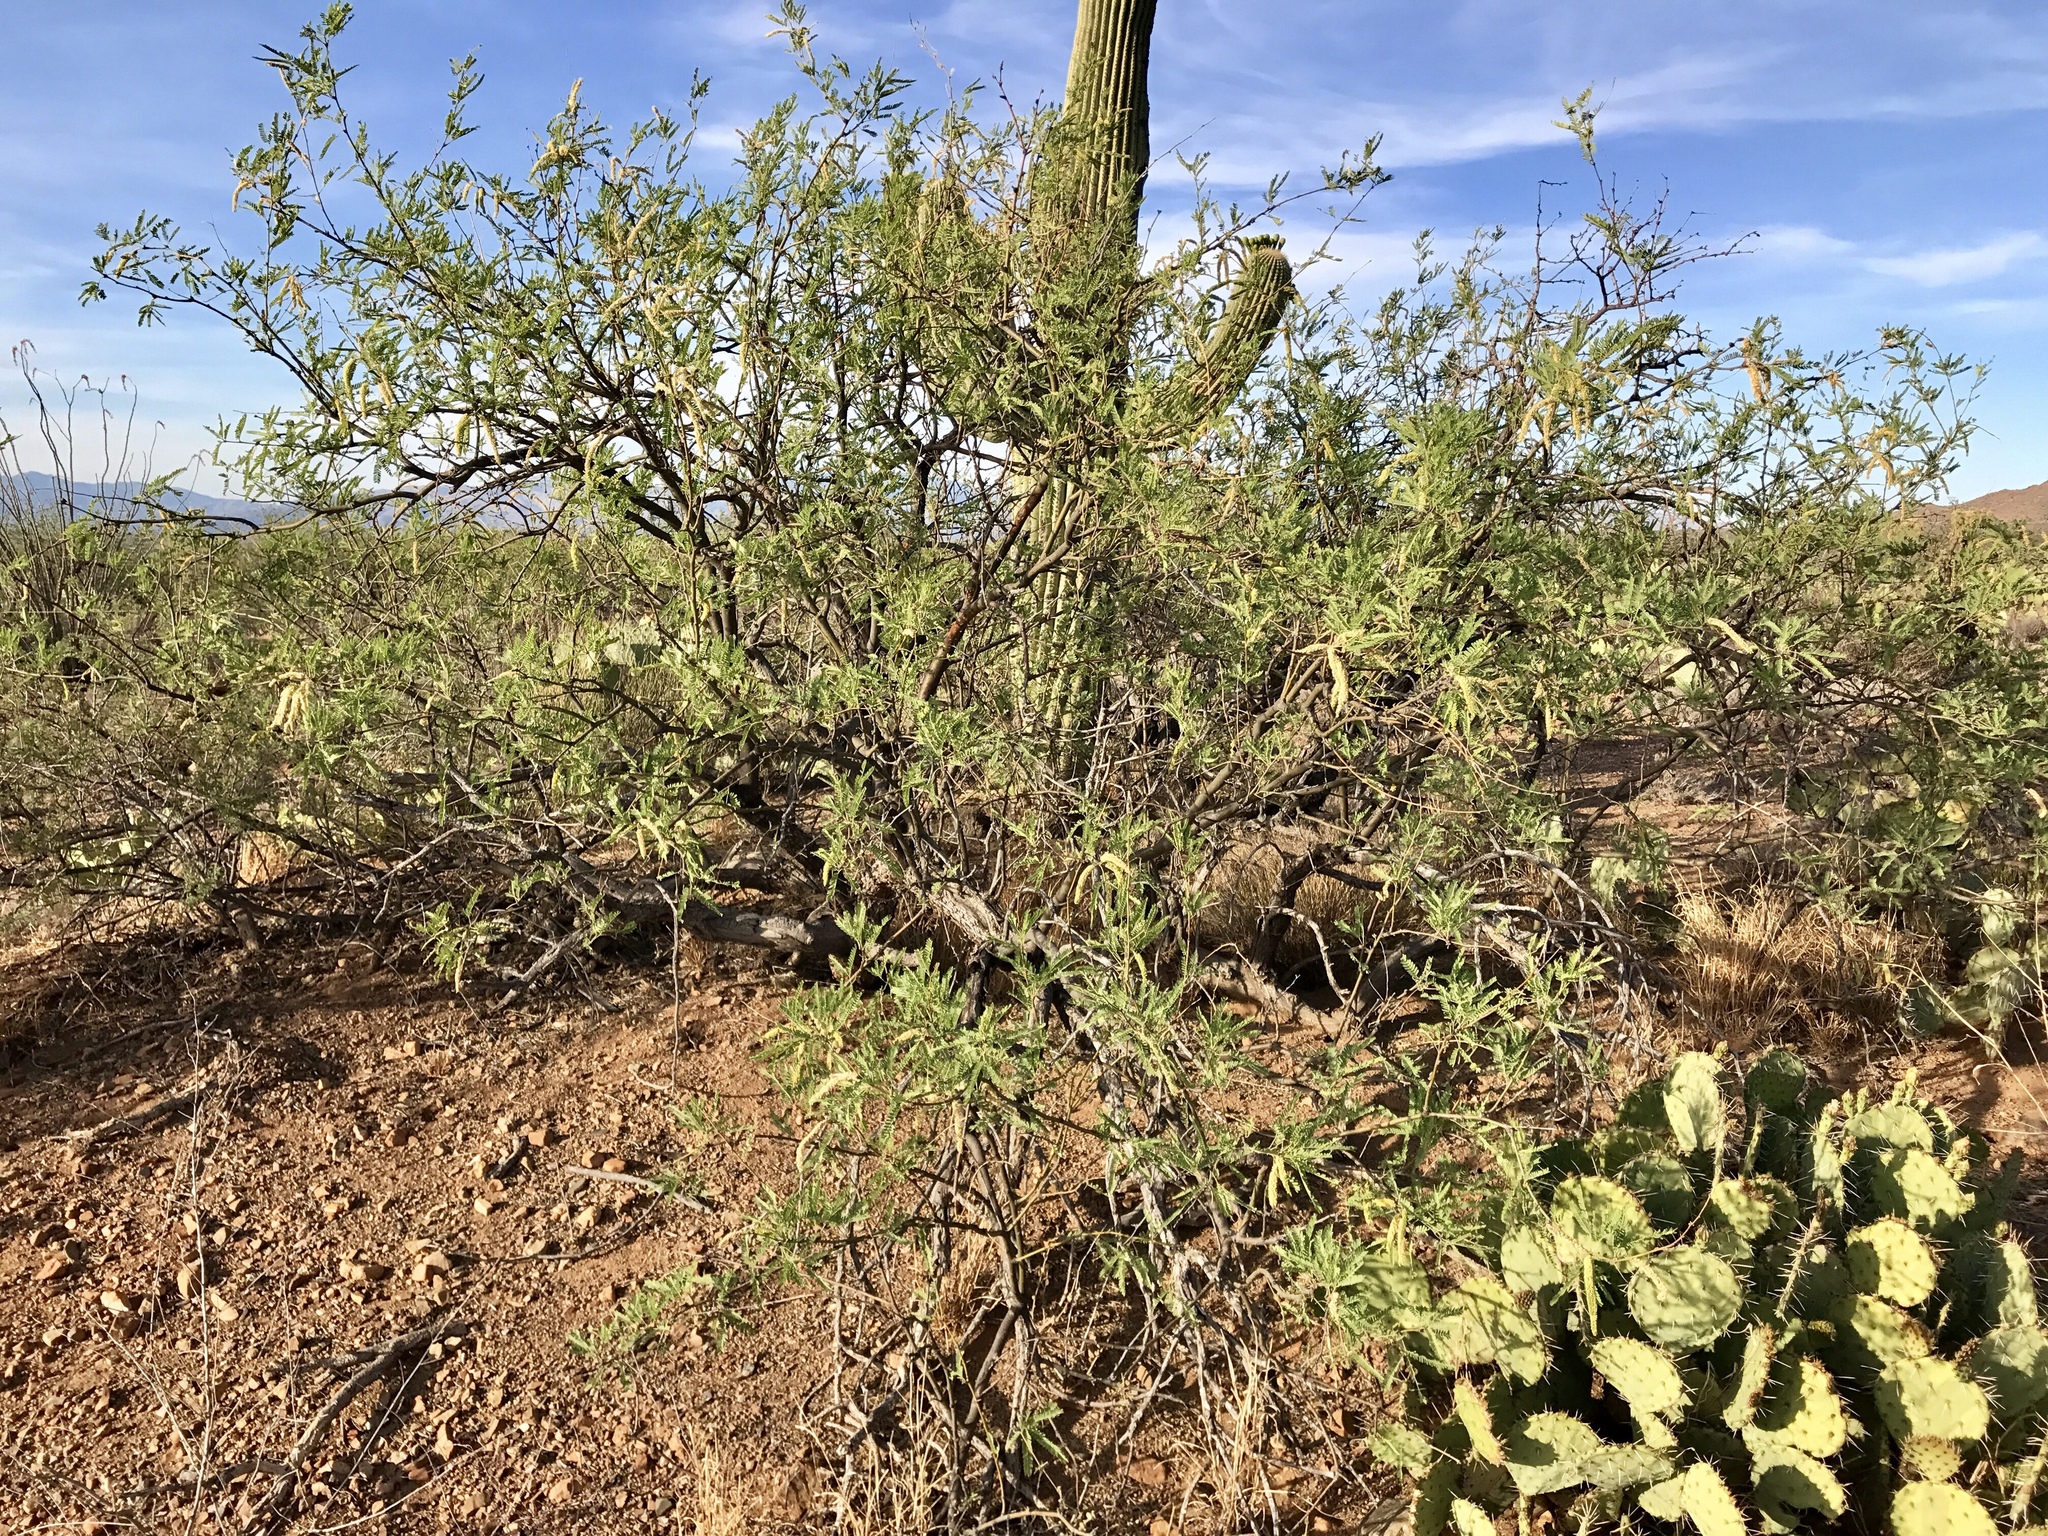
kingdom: Plantae
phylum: Tracheophyta
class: Magnoliopsida
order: Fabales
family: Fabaceae
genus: Prosopis
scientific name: Prosopis velutina
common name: Velvet mesquite
